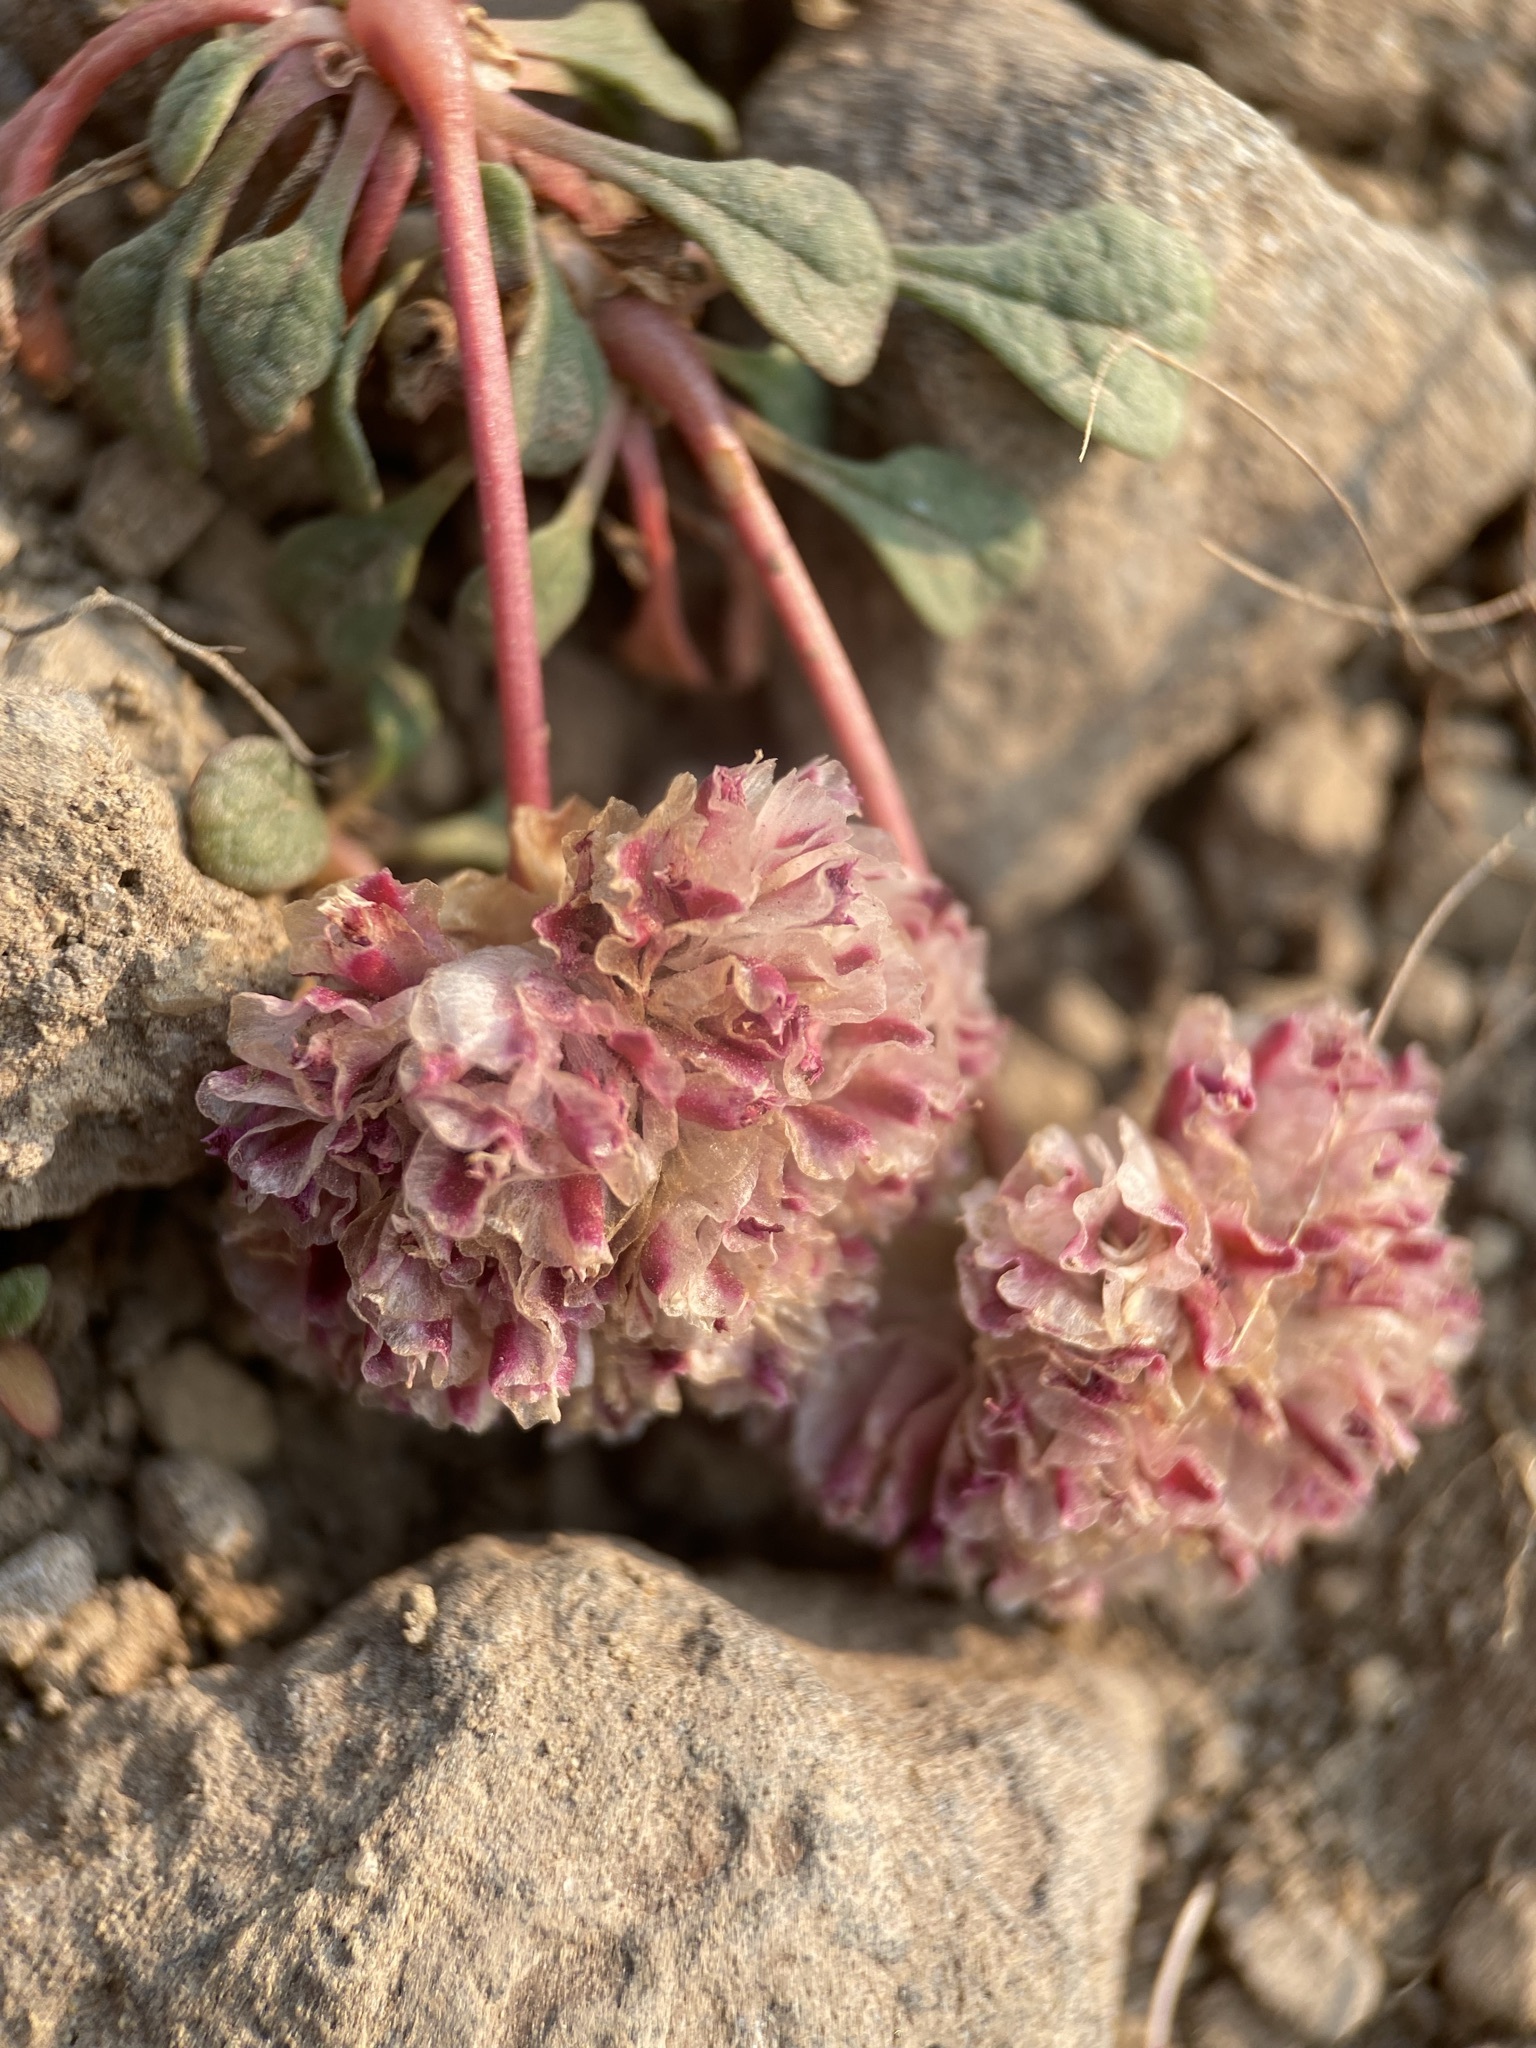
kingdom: Plantae
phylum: Tracheophyta
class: Magnoliopsida
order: Caryophyllales
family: Montiaceae
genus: Calyptridium
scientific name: Calyptridium umbellatum
